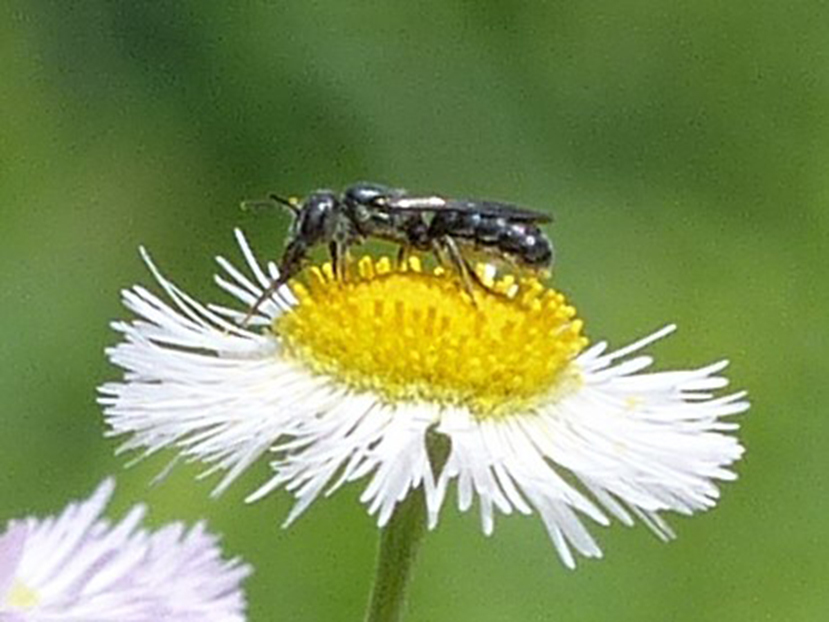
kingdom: Animalia
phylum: Arthropoda
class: Insecta
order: Hymenoptera
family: Megachilidae
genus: Chelostoma
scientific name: Chelostoma philadelphi
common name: Mock-orange scissor bee
